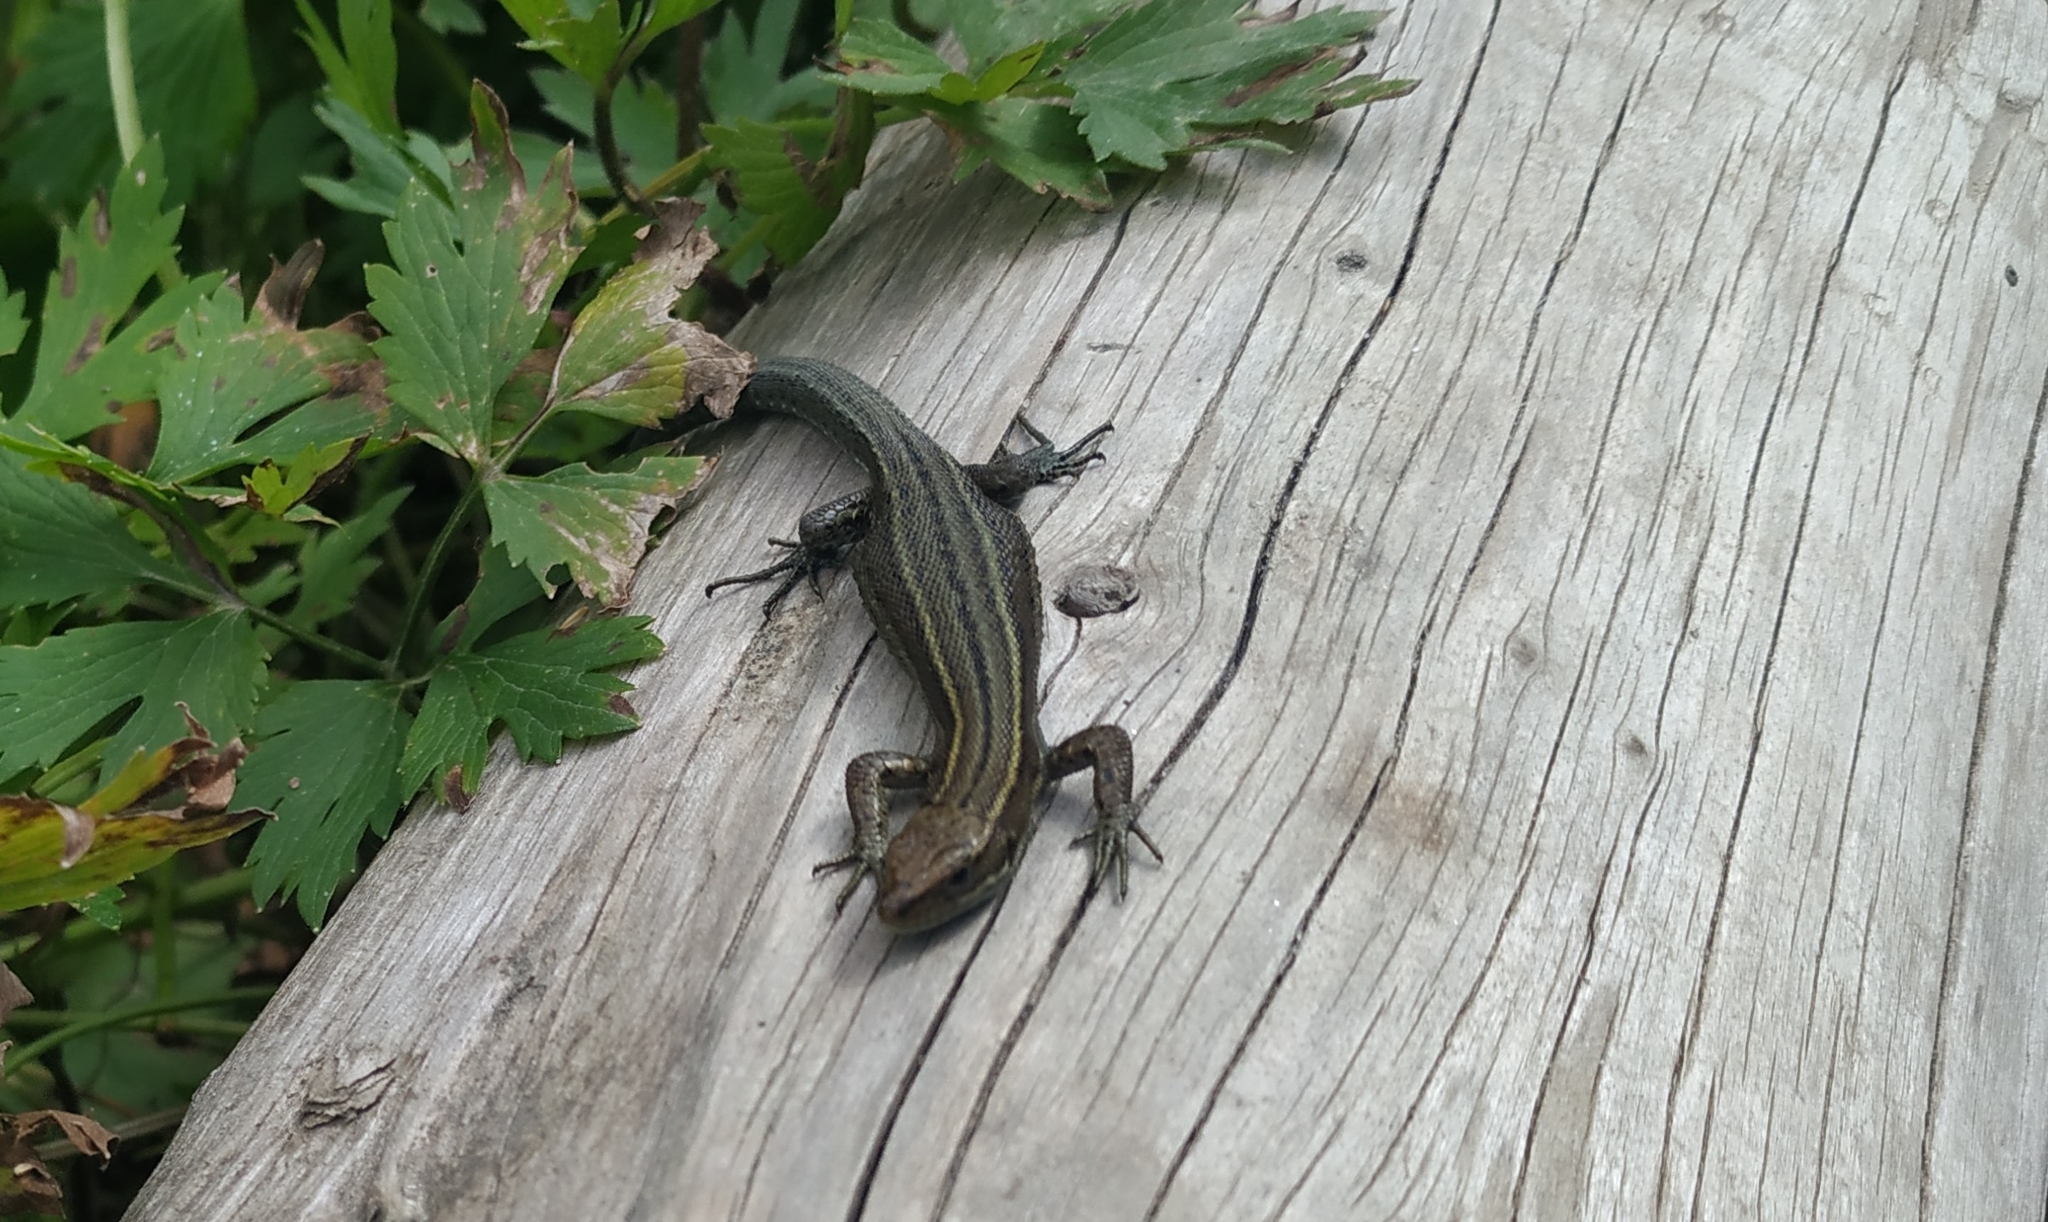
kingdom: Animalia
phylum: Chordata
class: Squamata
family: Lacertidae
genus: Zootoca
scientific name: Zootoca vivipara
